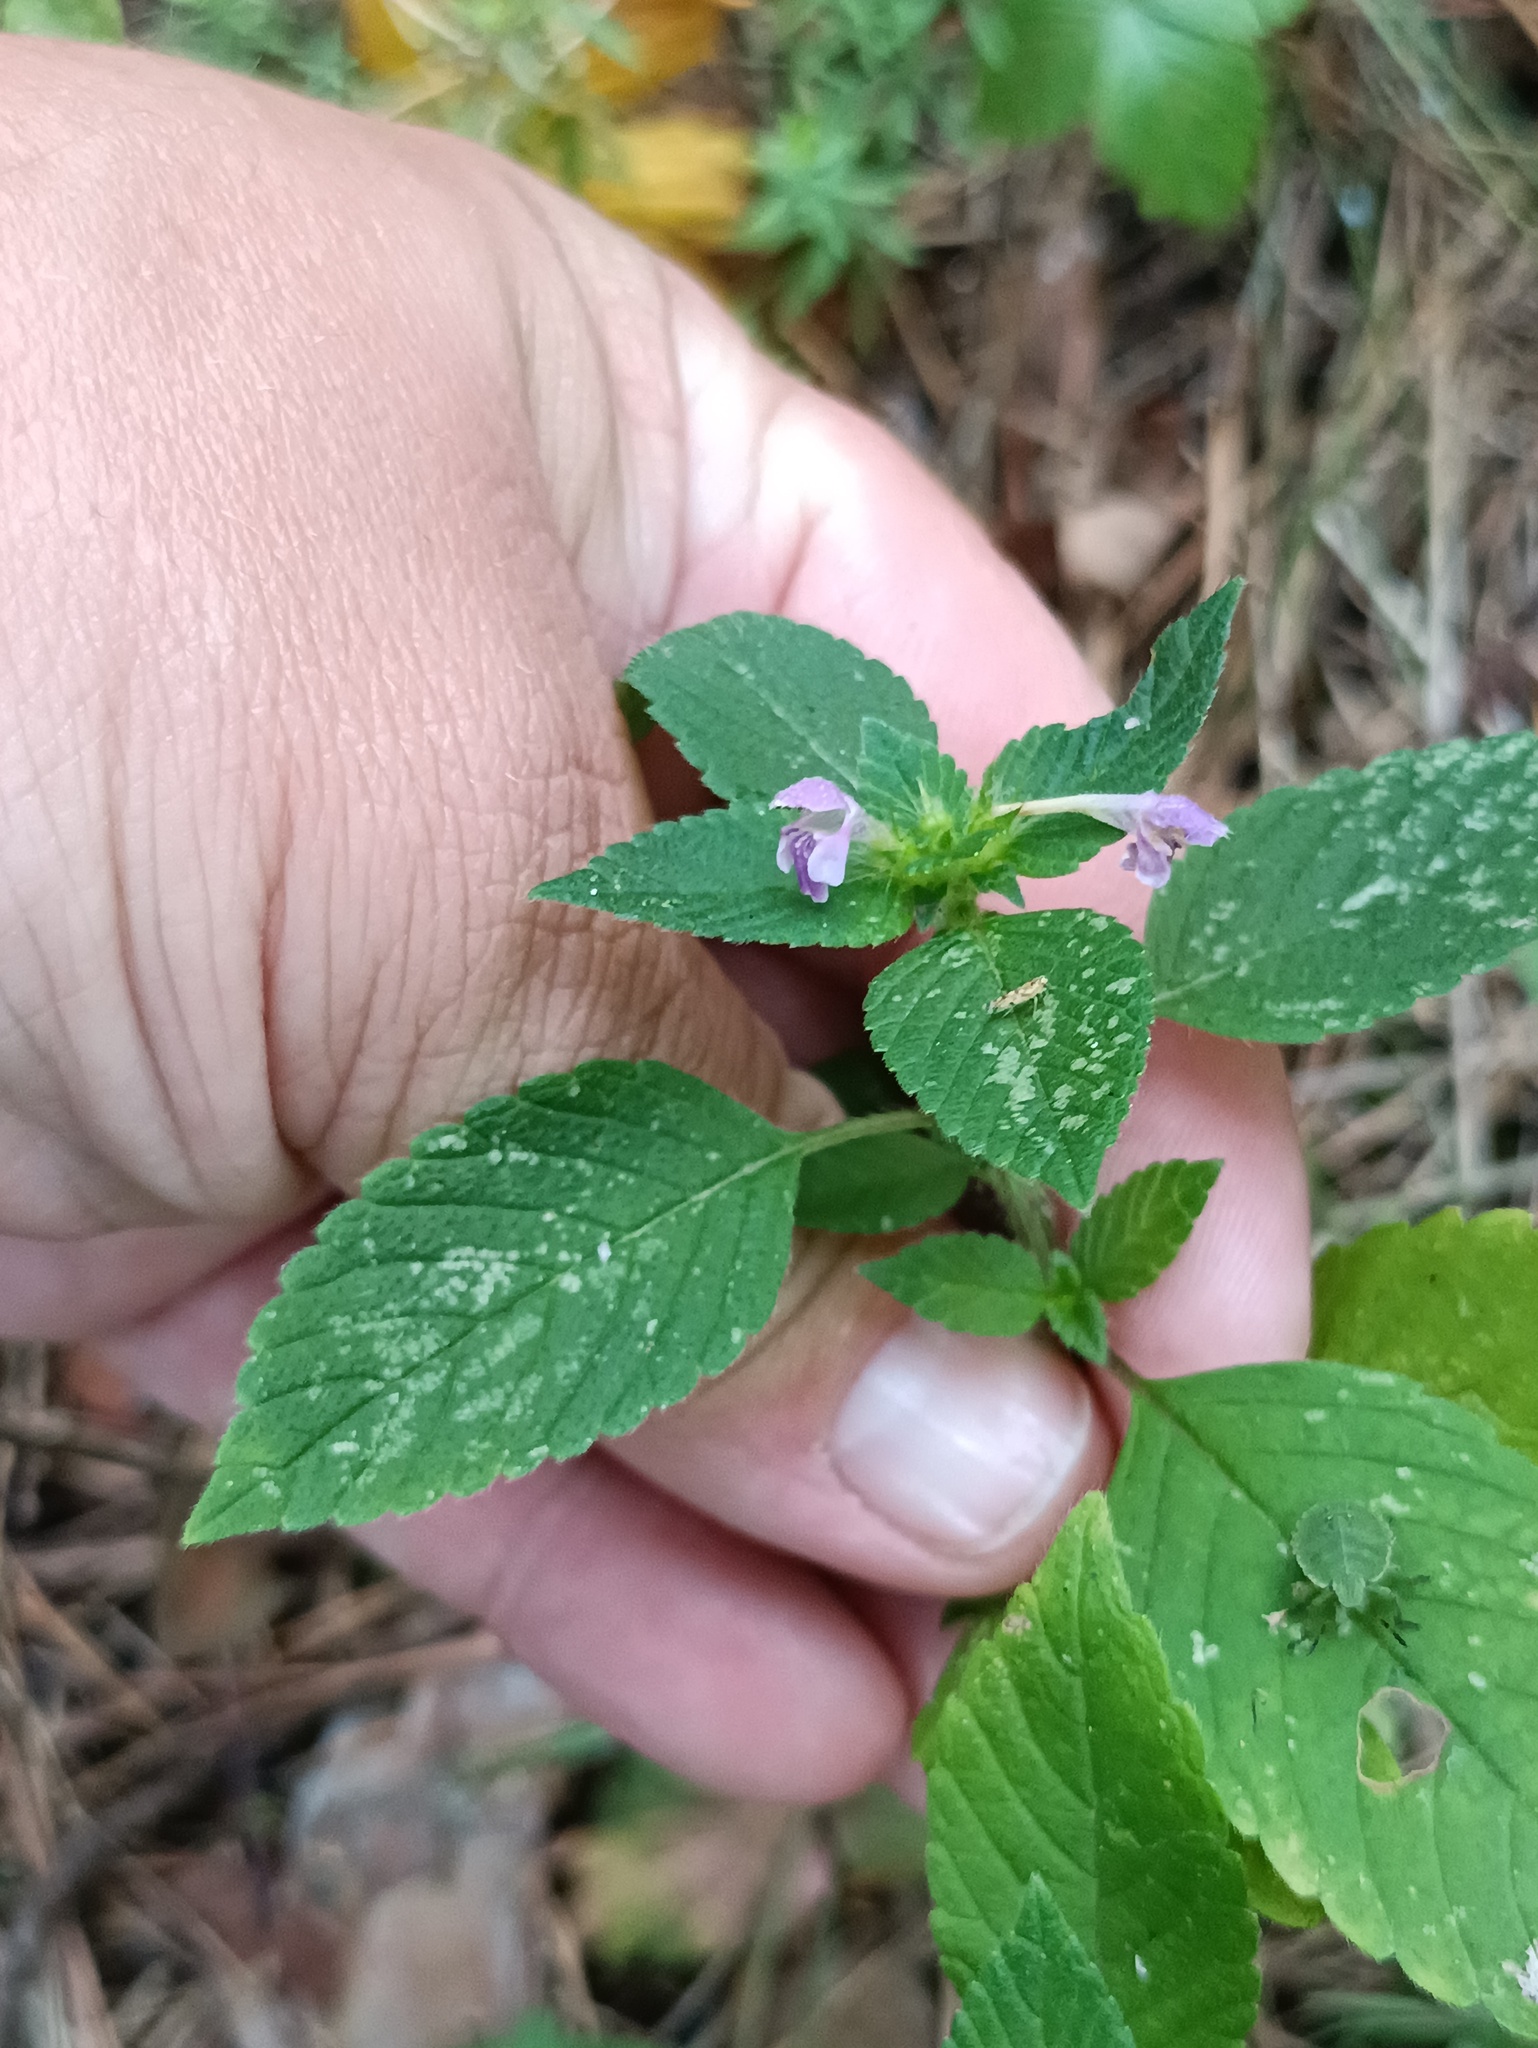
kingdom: Plantae
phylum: Tracheophyta
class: Magnoliopsida
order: Lamiales
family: Lamiaceae
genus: Galeopsis
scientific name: Galeopsis bifida
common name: Bifid hemp-nettle
